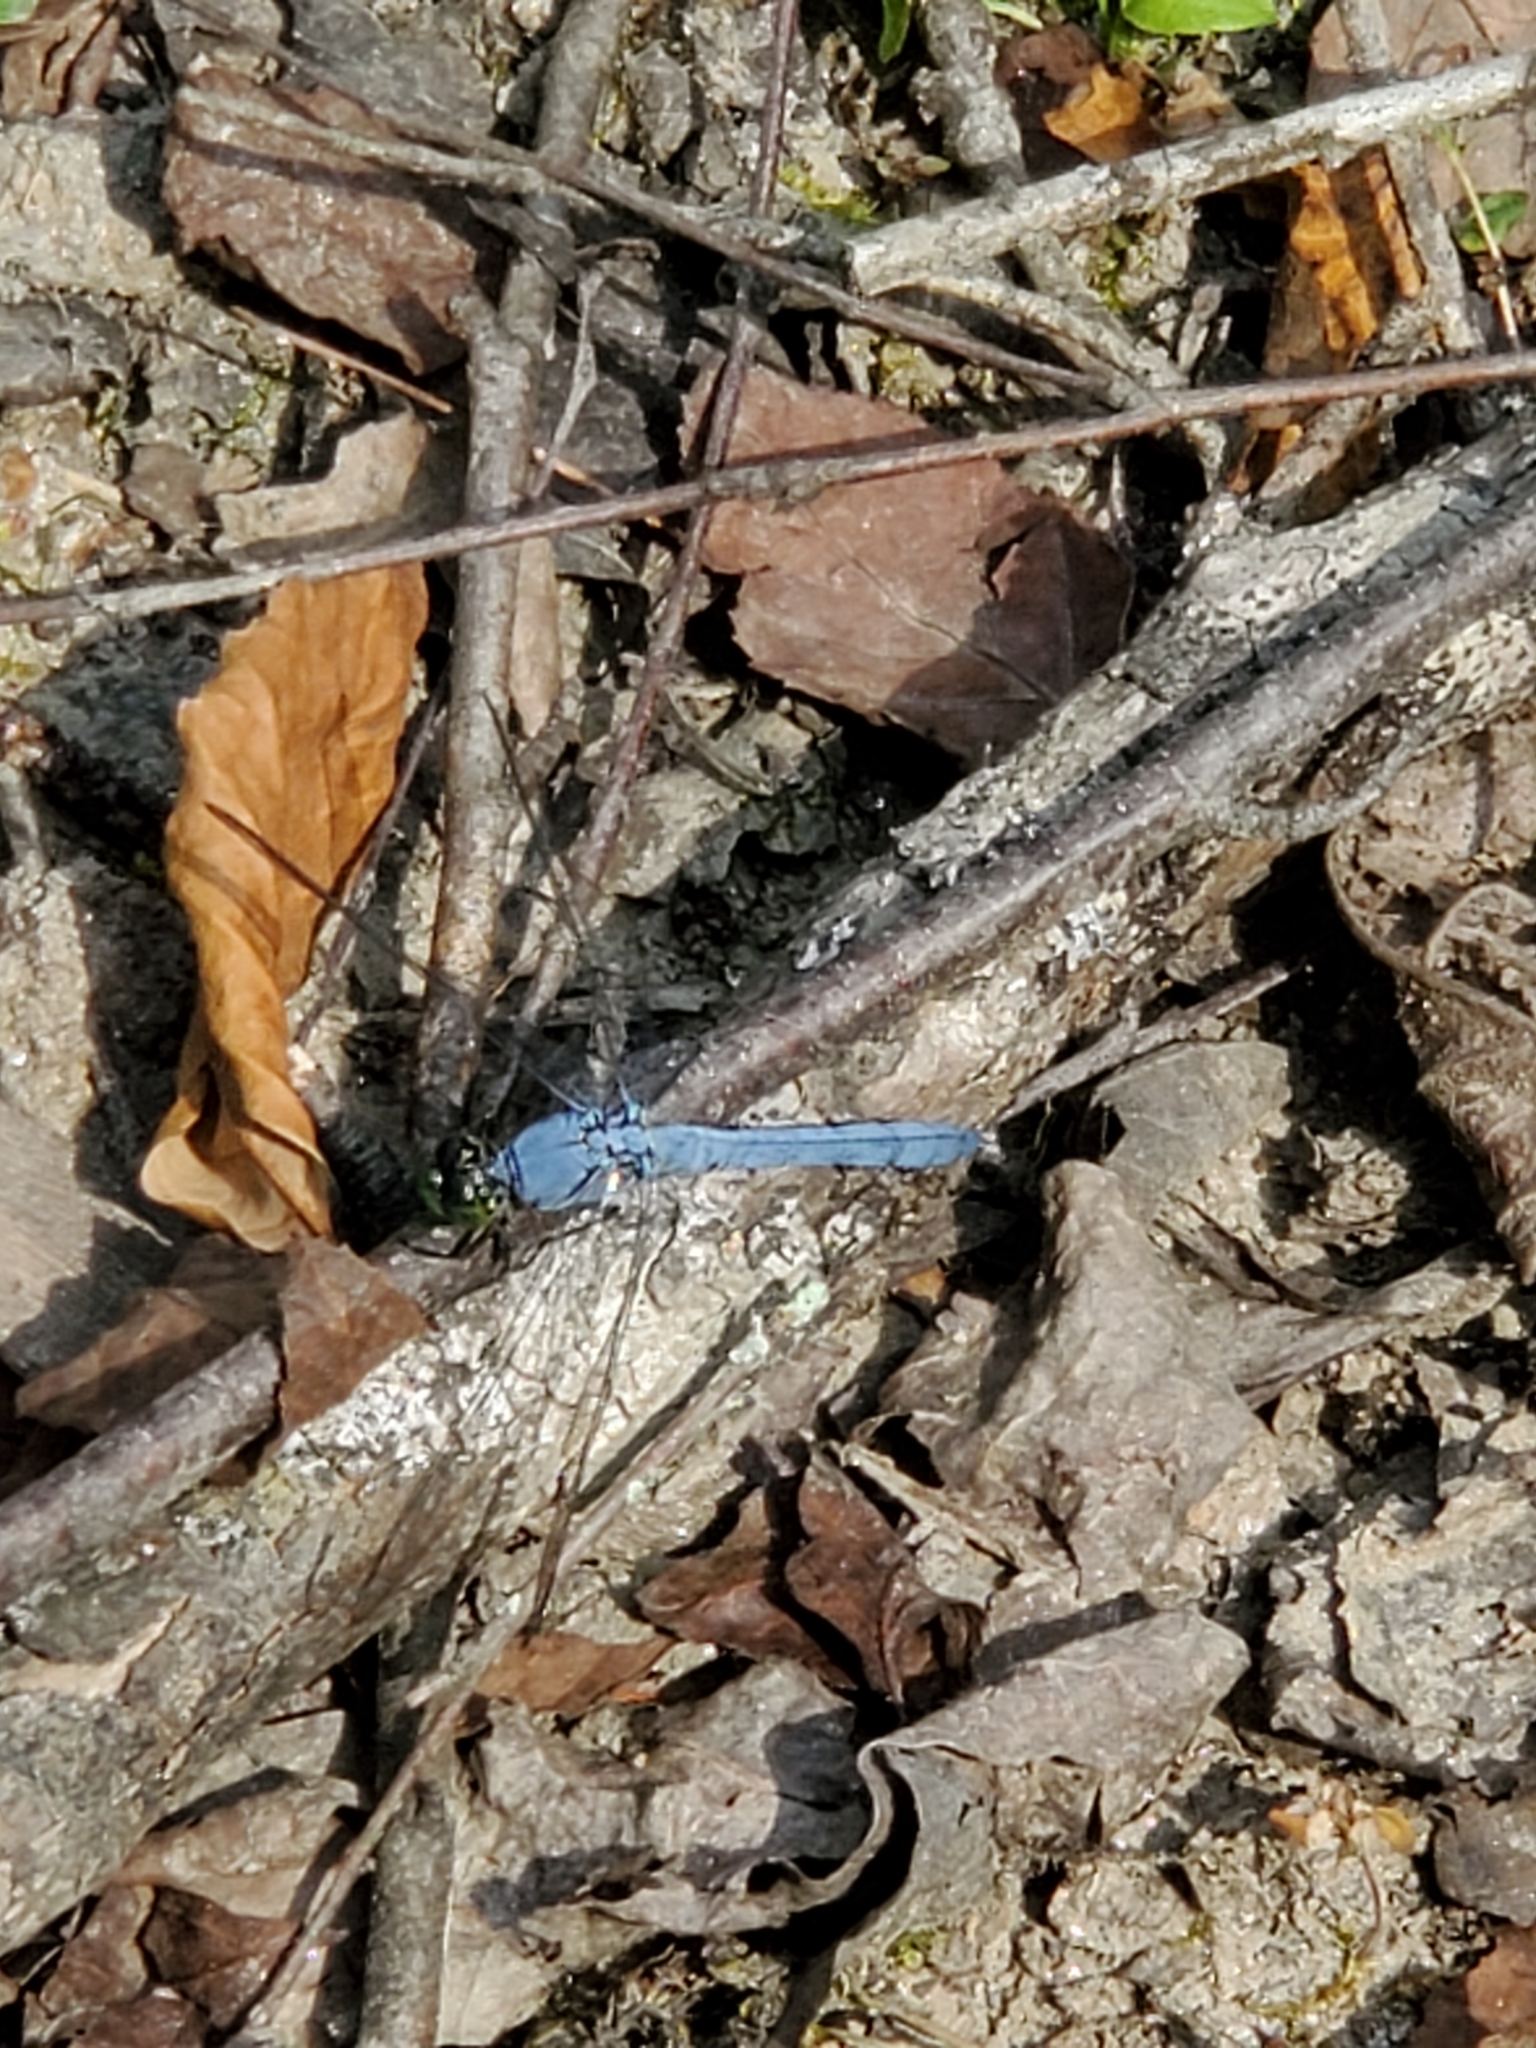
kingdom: Animalia
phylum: Arthropoda
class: Insecta
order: Odonata
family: Libellulidae
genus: Erythemis
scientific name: Erythemis simplicicollis
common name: Eastern pondhawk
